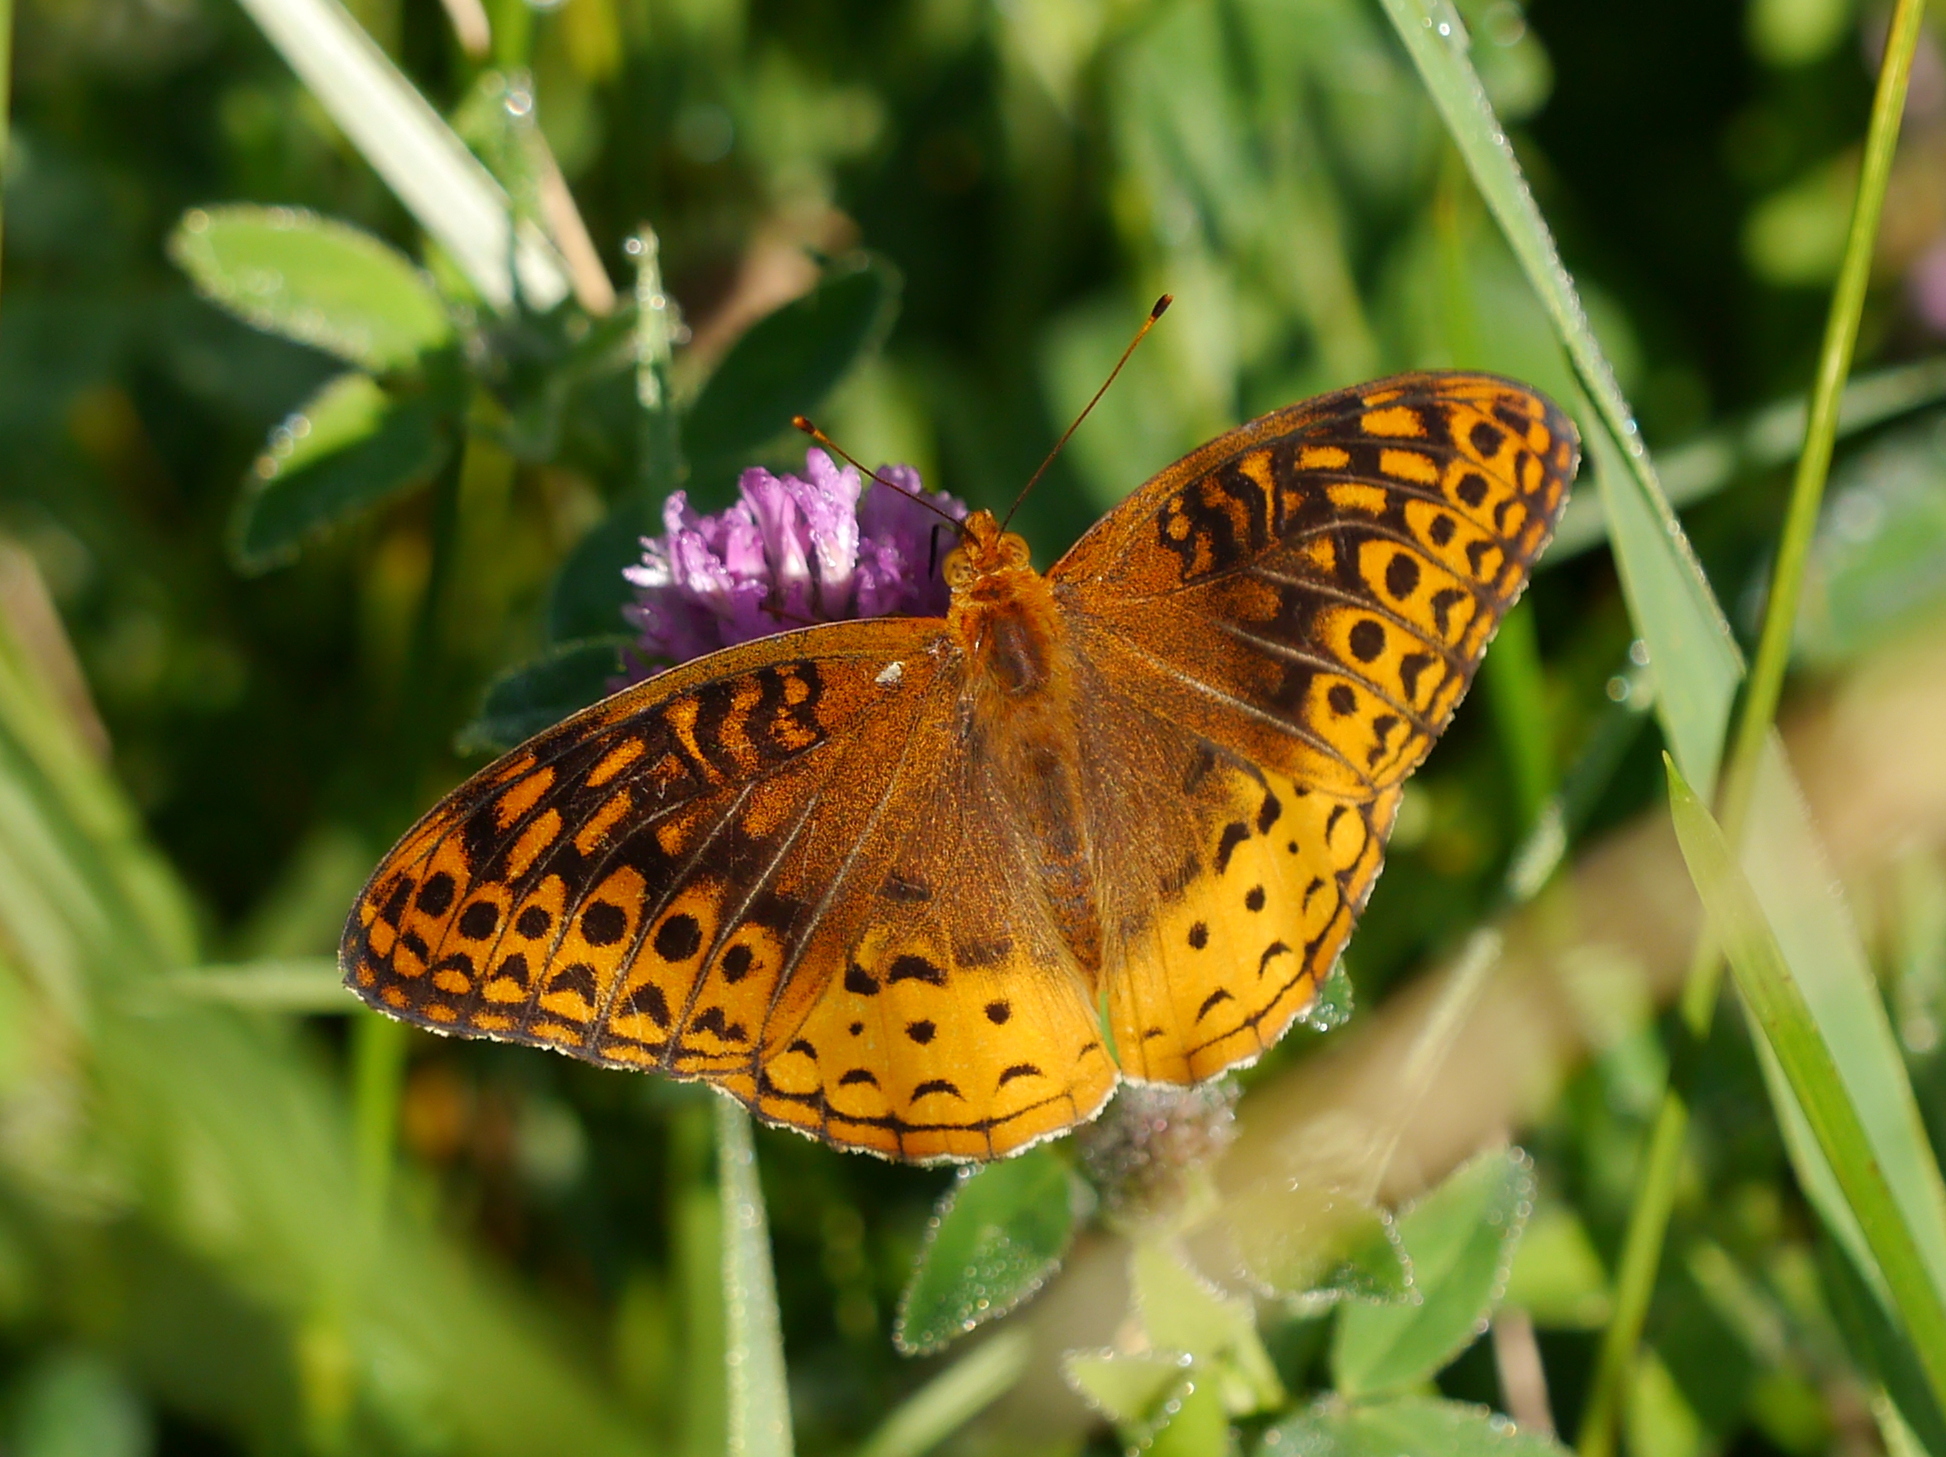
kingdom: Animalia
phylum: Arthropoda
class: Insecta
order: Lepidoptera
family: Nymphalidae
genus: Speyeria
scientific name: Speyeria cybele
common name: Great spangled fritillary
